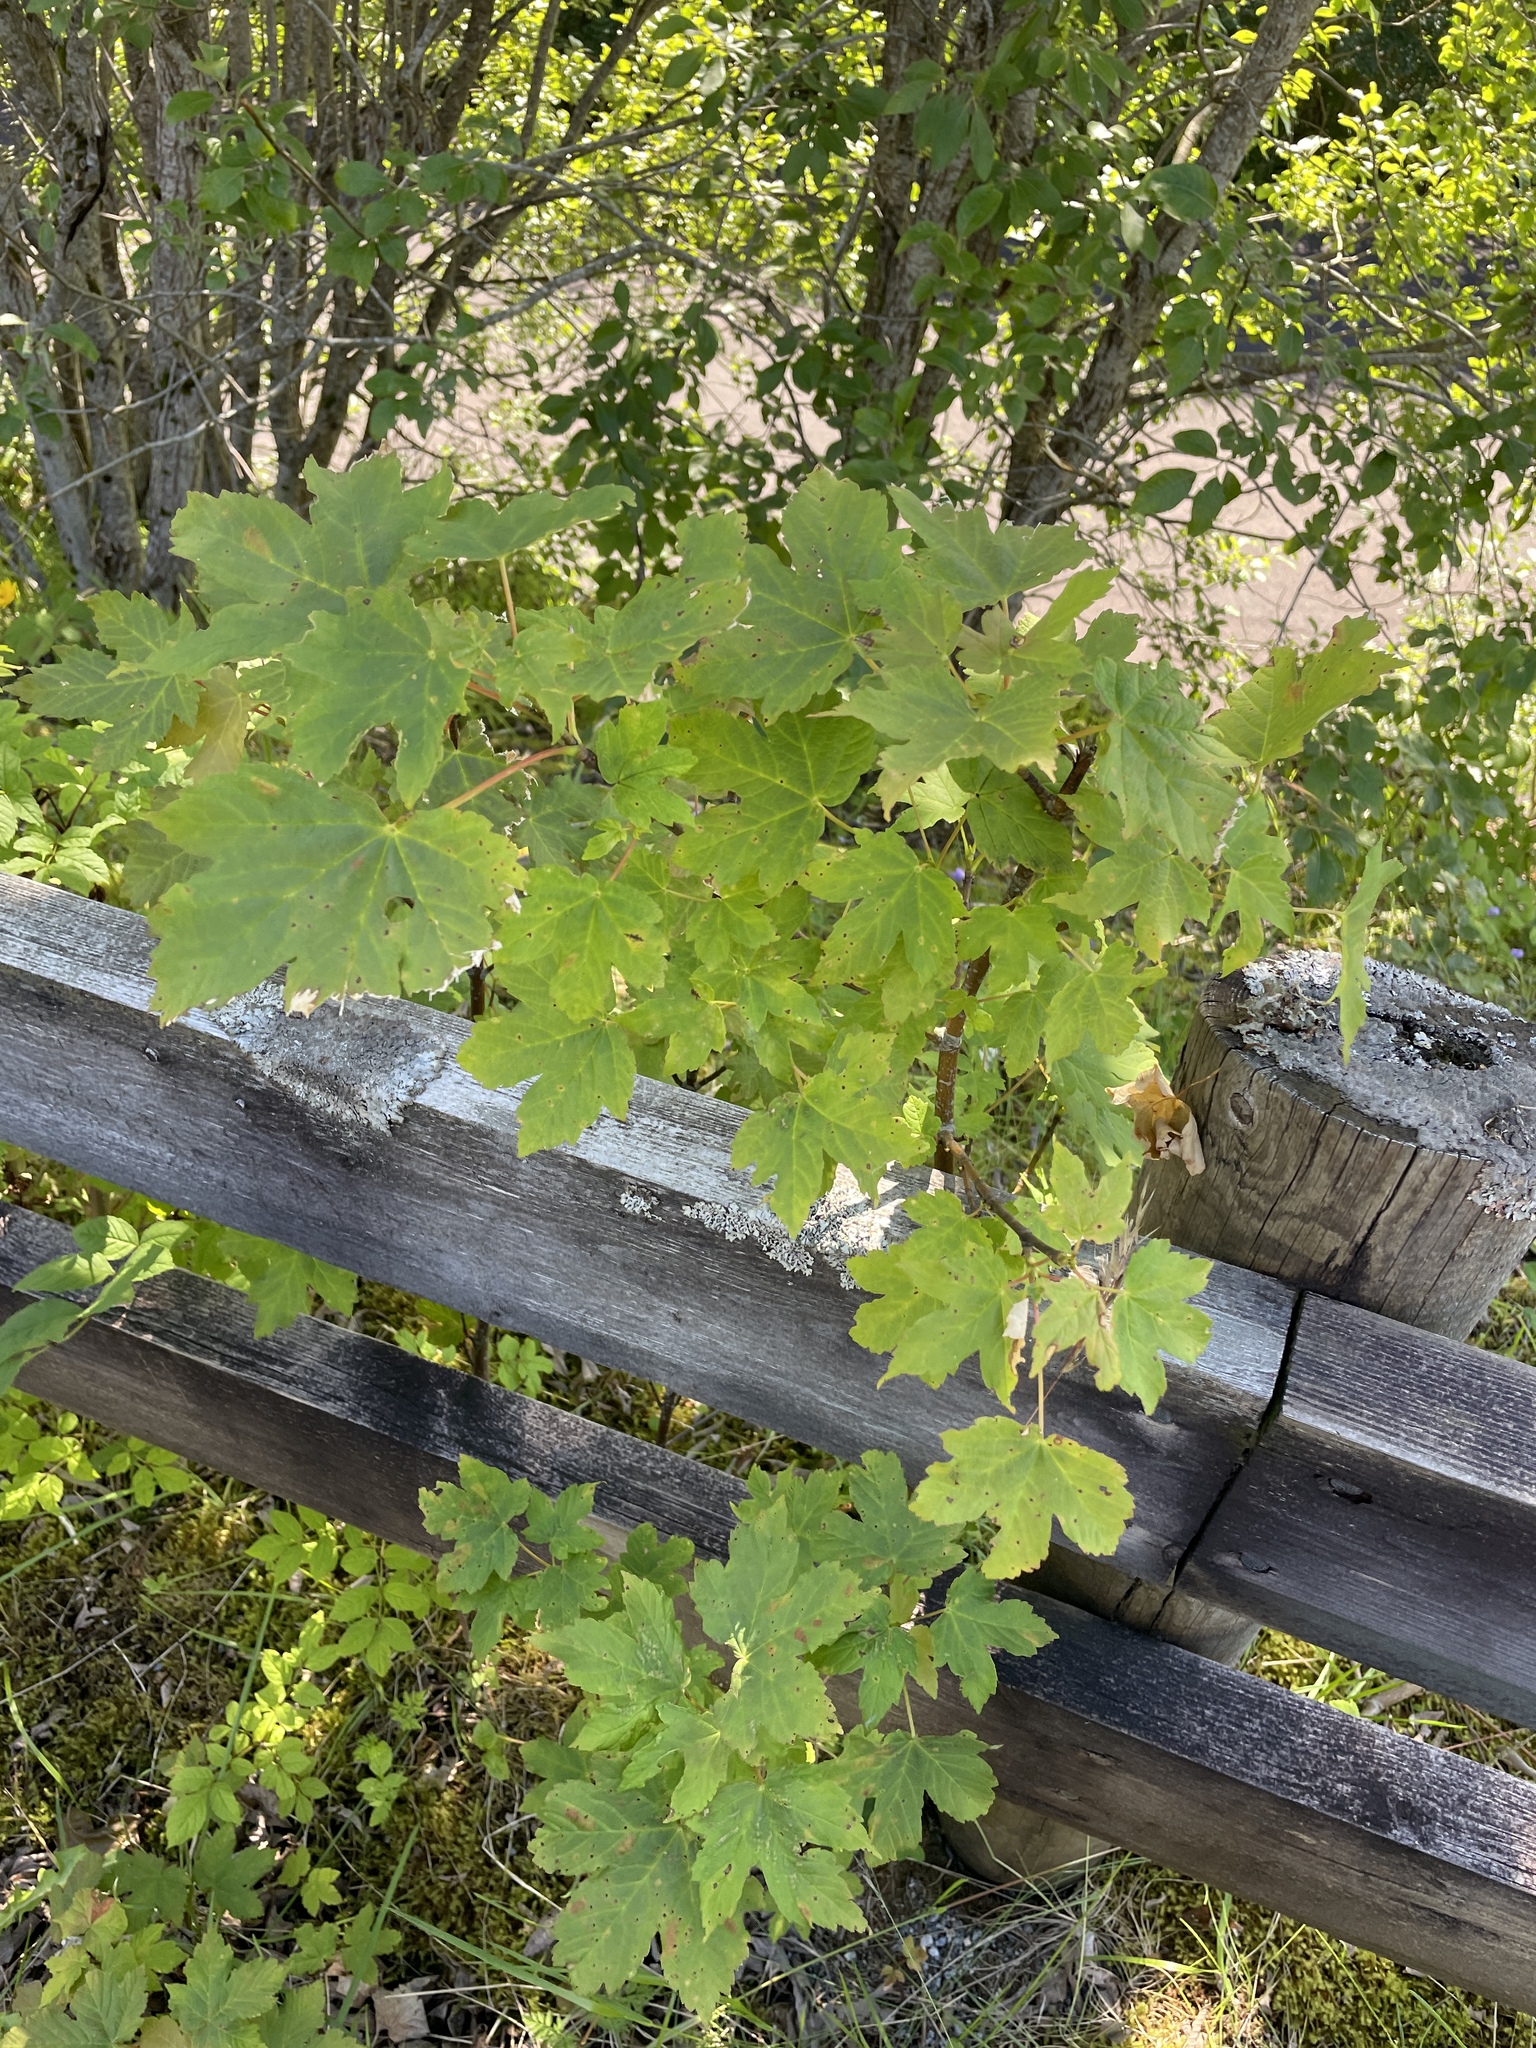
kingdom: Plantae
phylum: Tracheophyta
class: Magnoliopsida
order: Sapindales
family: Sapindaceae
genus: Acer
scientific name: Acer pseudoplatanus
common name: Sycamore
